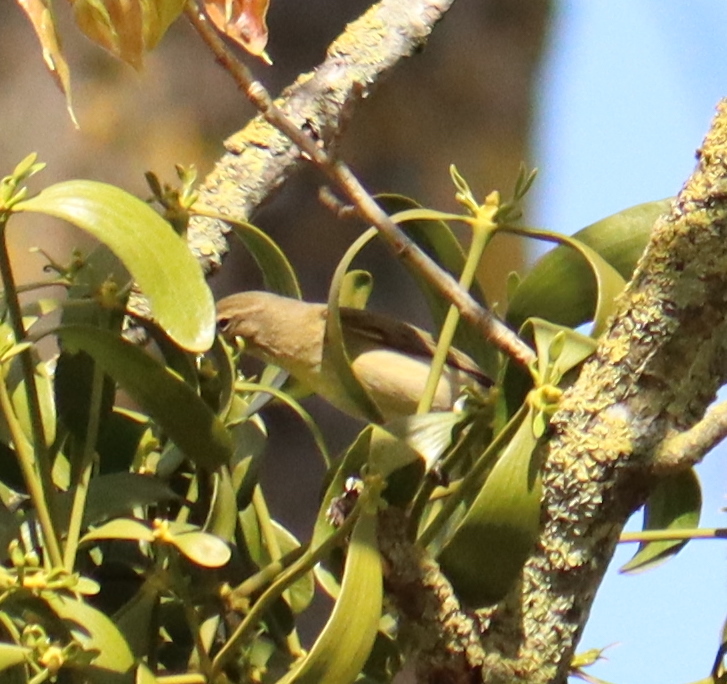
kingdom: Animalia
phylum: Chordata
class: Aves
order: Passeriformes
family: Phylloscopidae
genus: Phylloscopus
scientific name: Phylloscopus collybita
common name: Common chiffchaff
